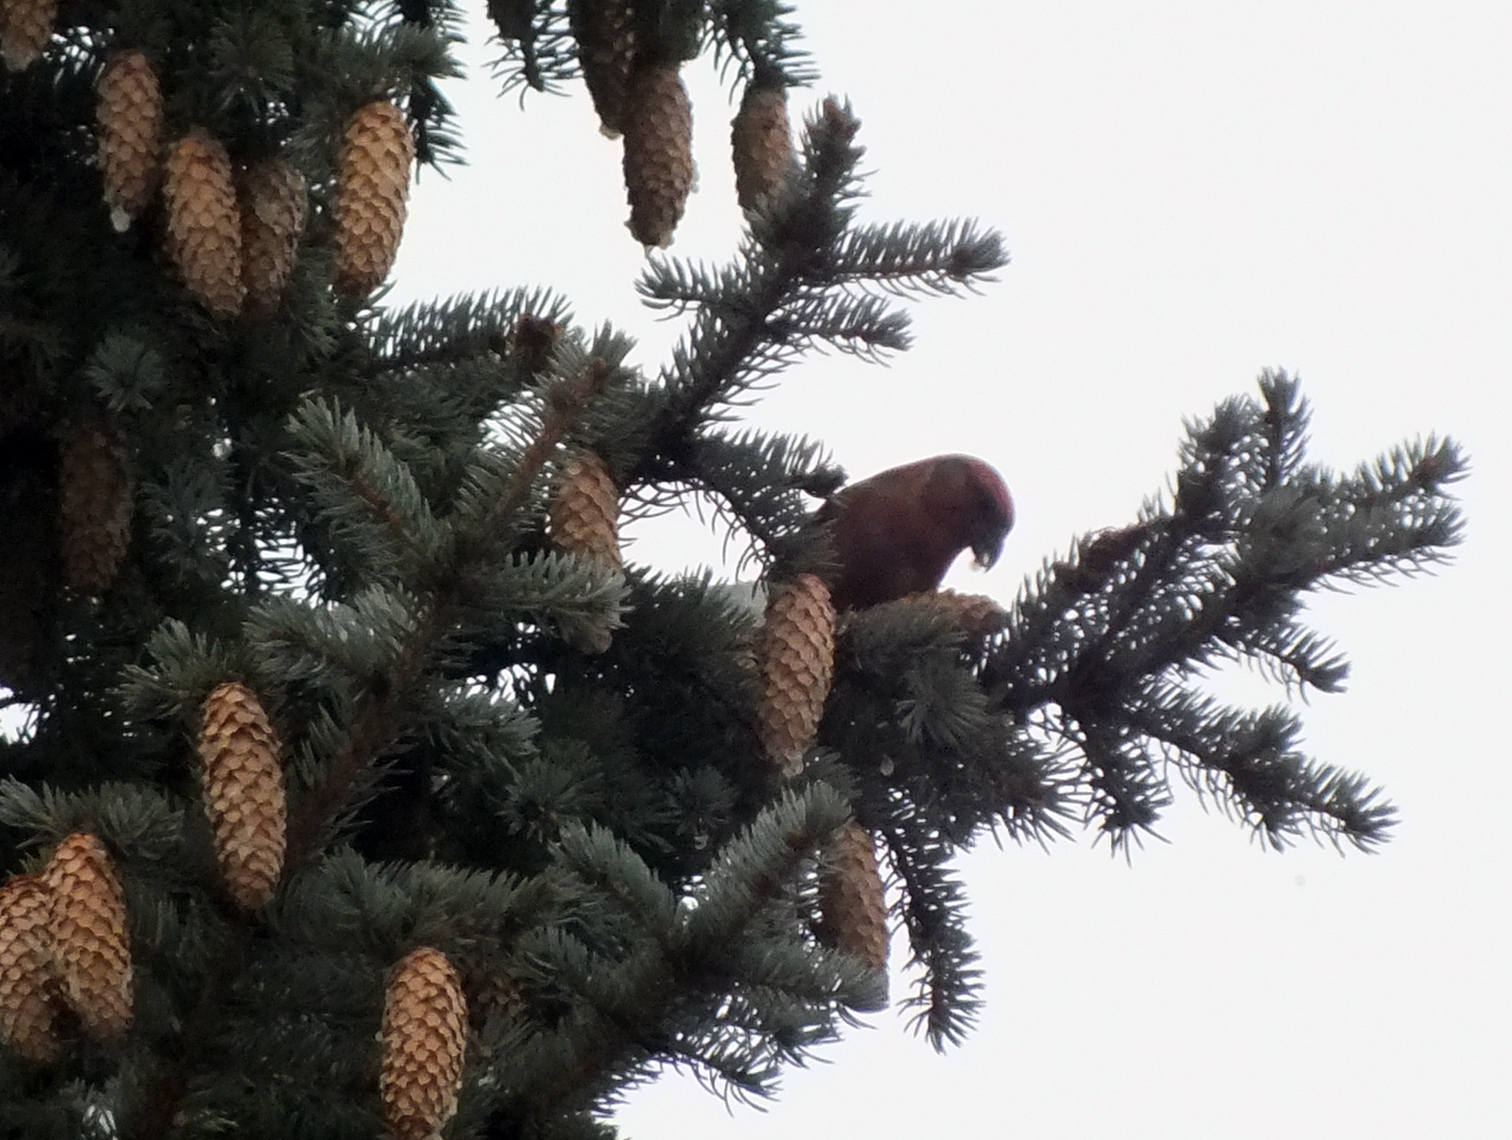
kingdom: Animalia
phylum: Chordata
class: Aves
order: Passeriformes
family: Fringillidae
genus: Loxia
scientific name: Loxia curvirostra
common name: Red crossbill
